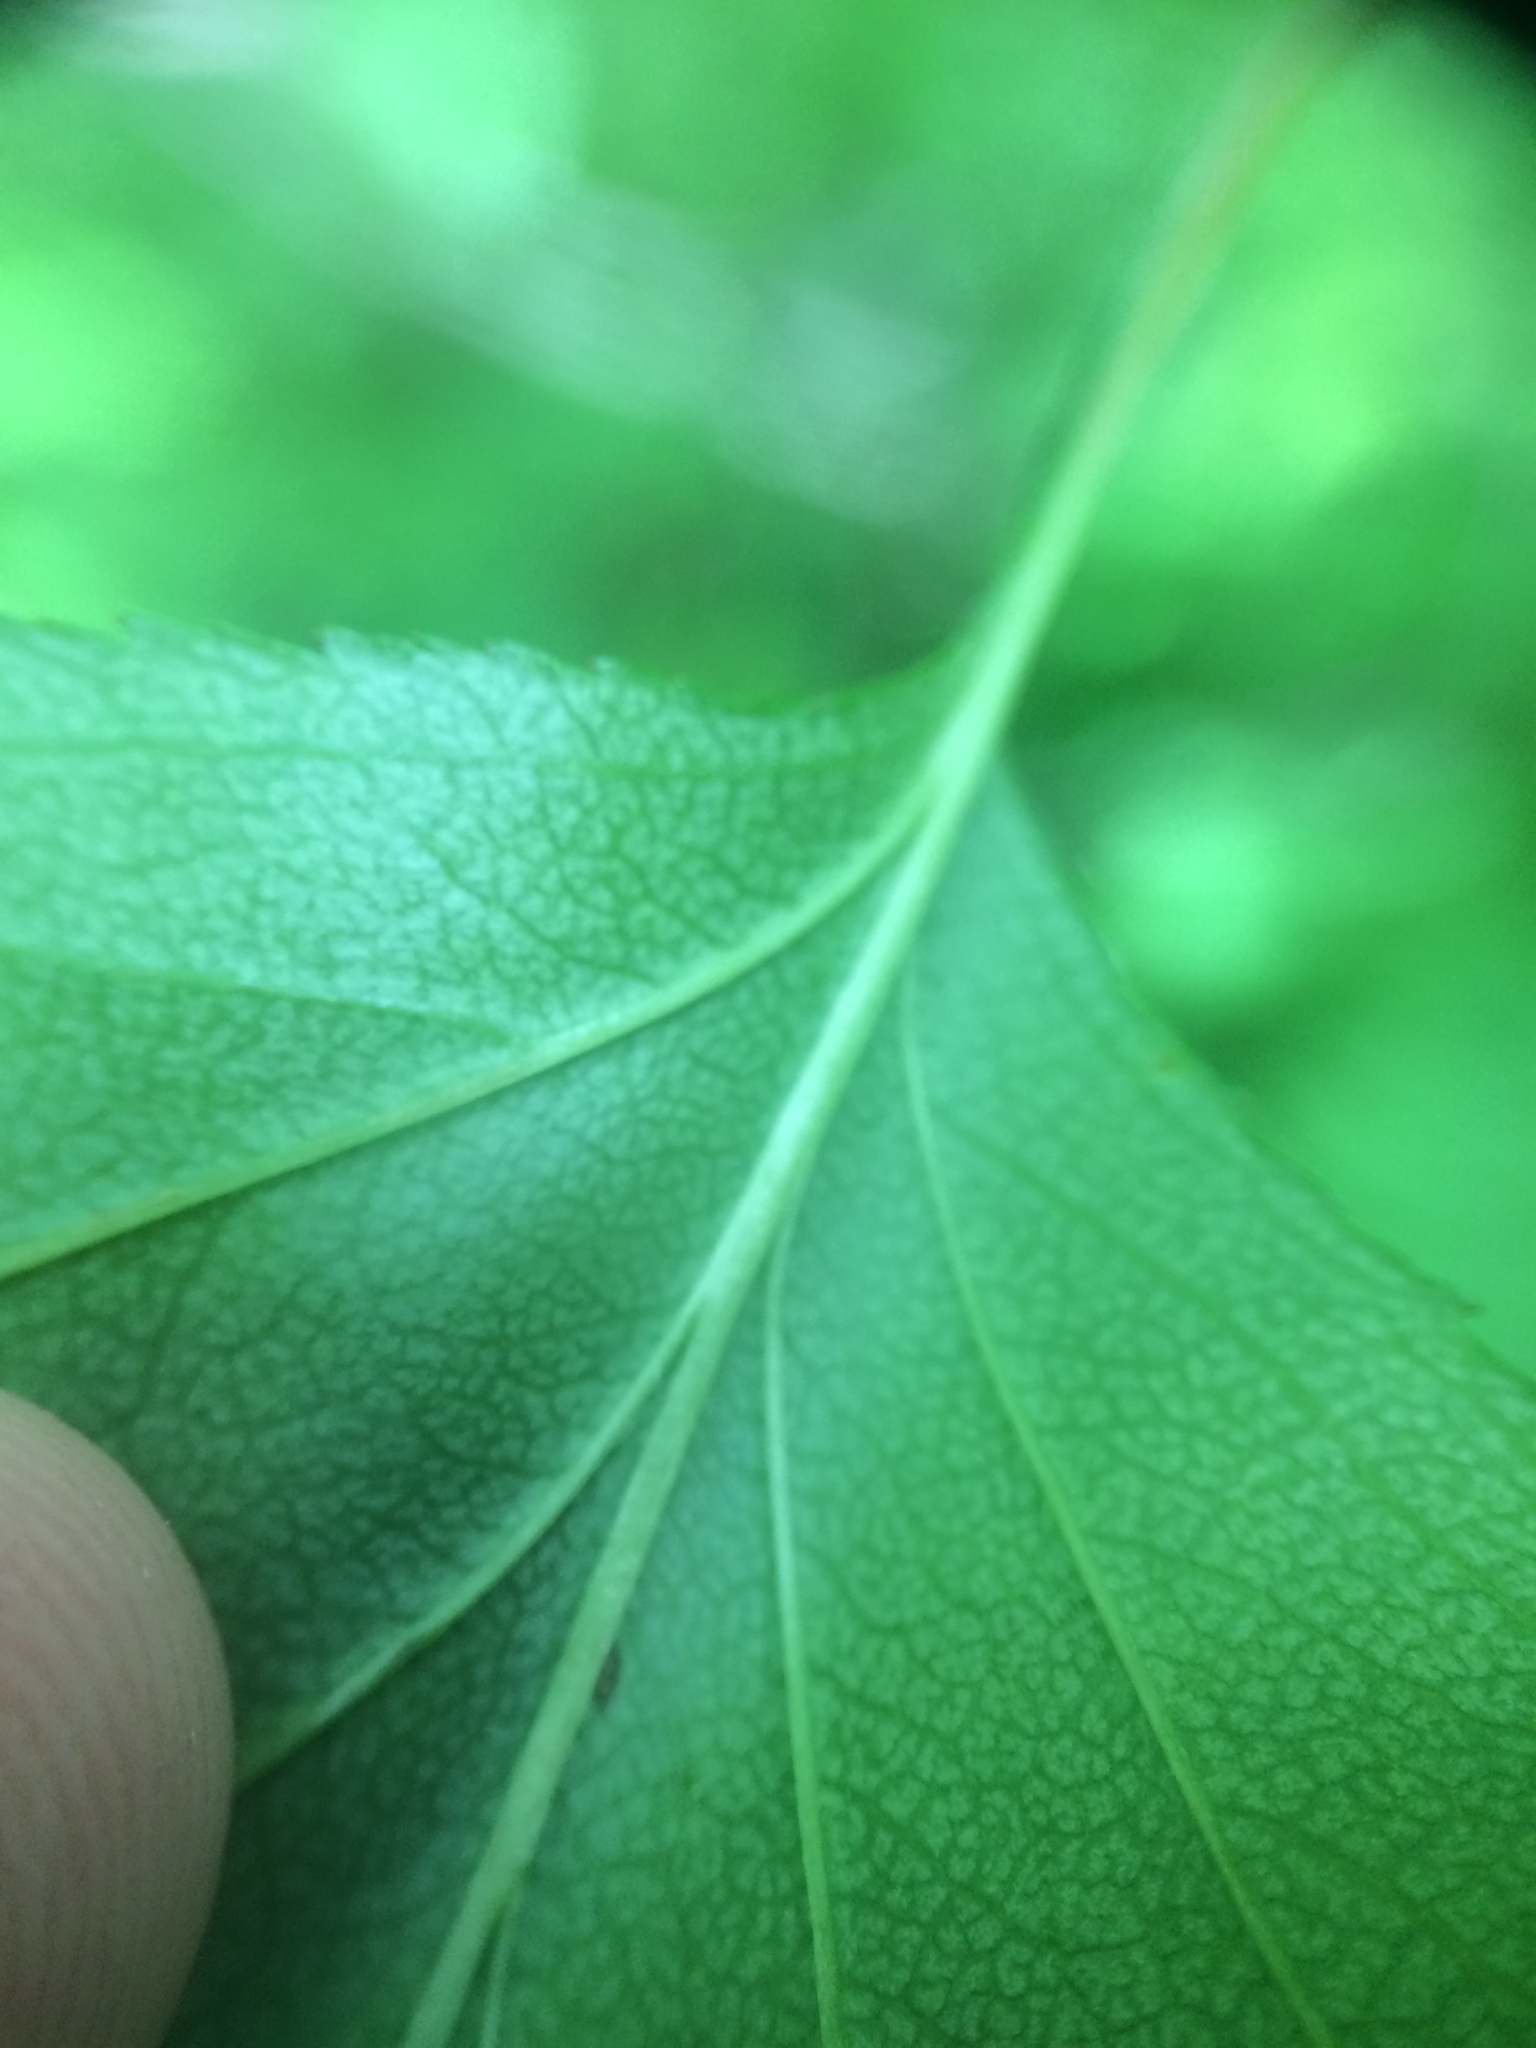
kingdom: Plantae
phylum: Tracheophyta
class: Magnoliopsida
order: Rosales
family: Rosaceae
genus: Crataegus
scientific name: Crataegus flabellata
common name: Bosc's hawthorn
